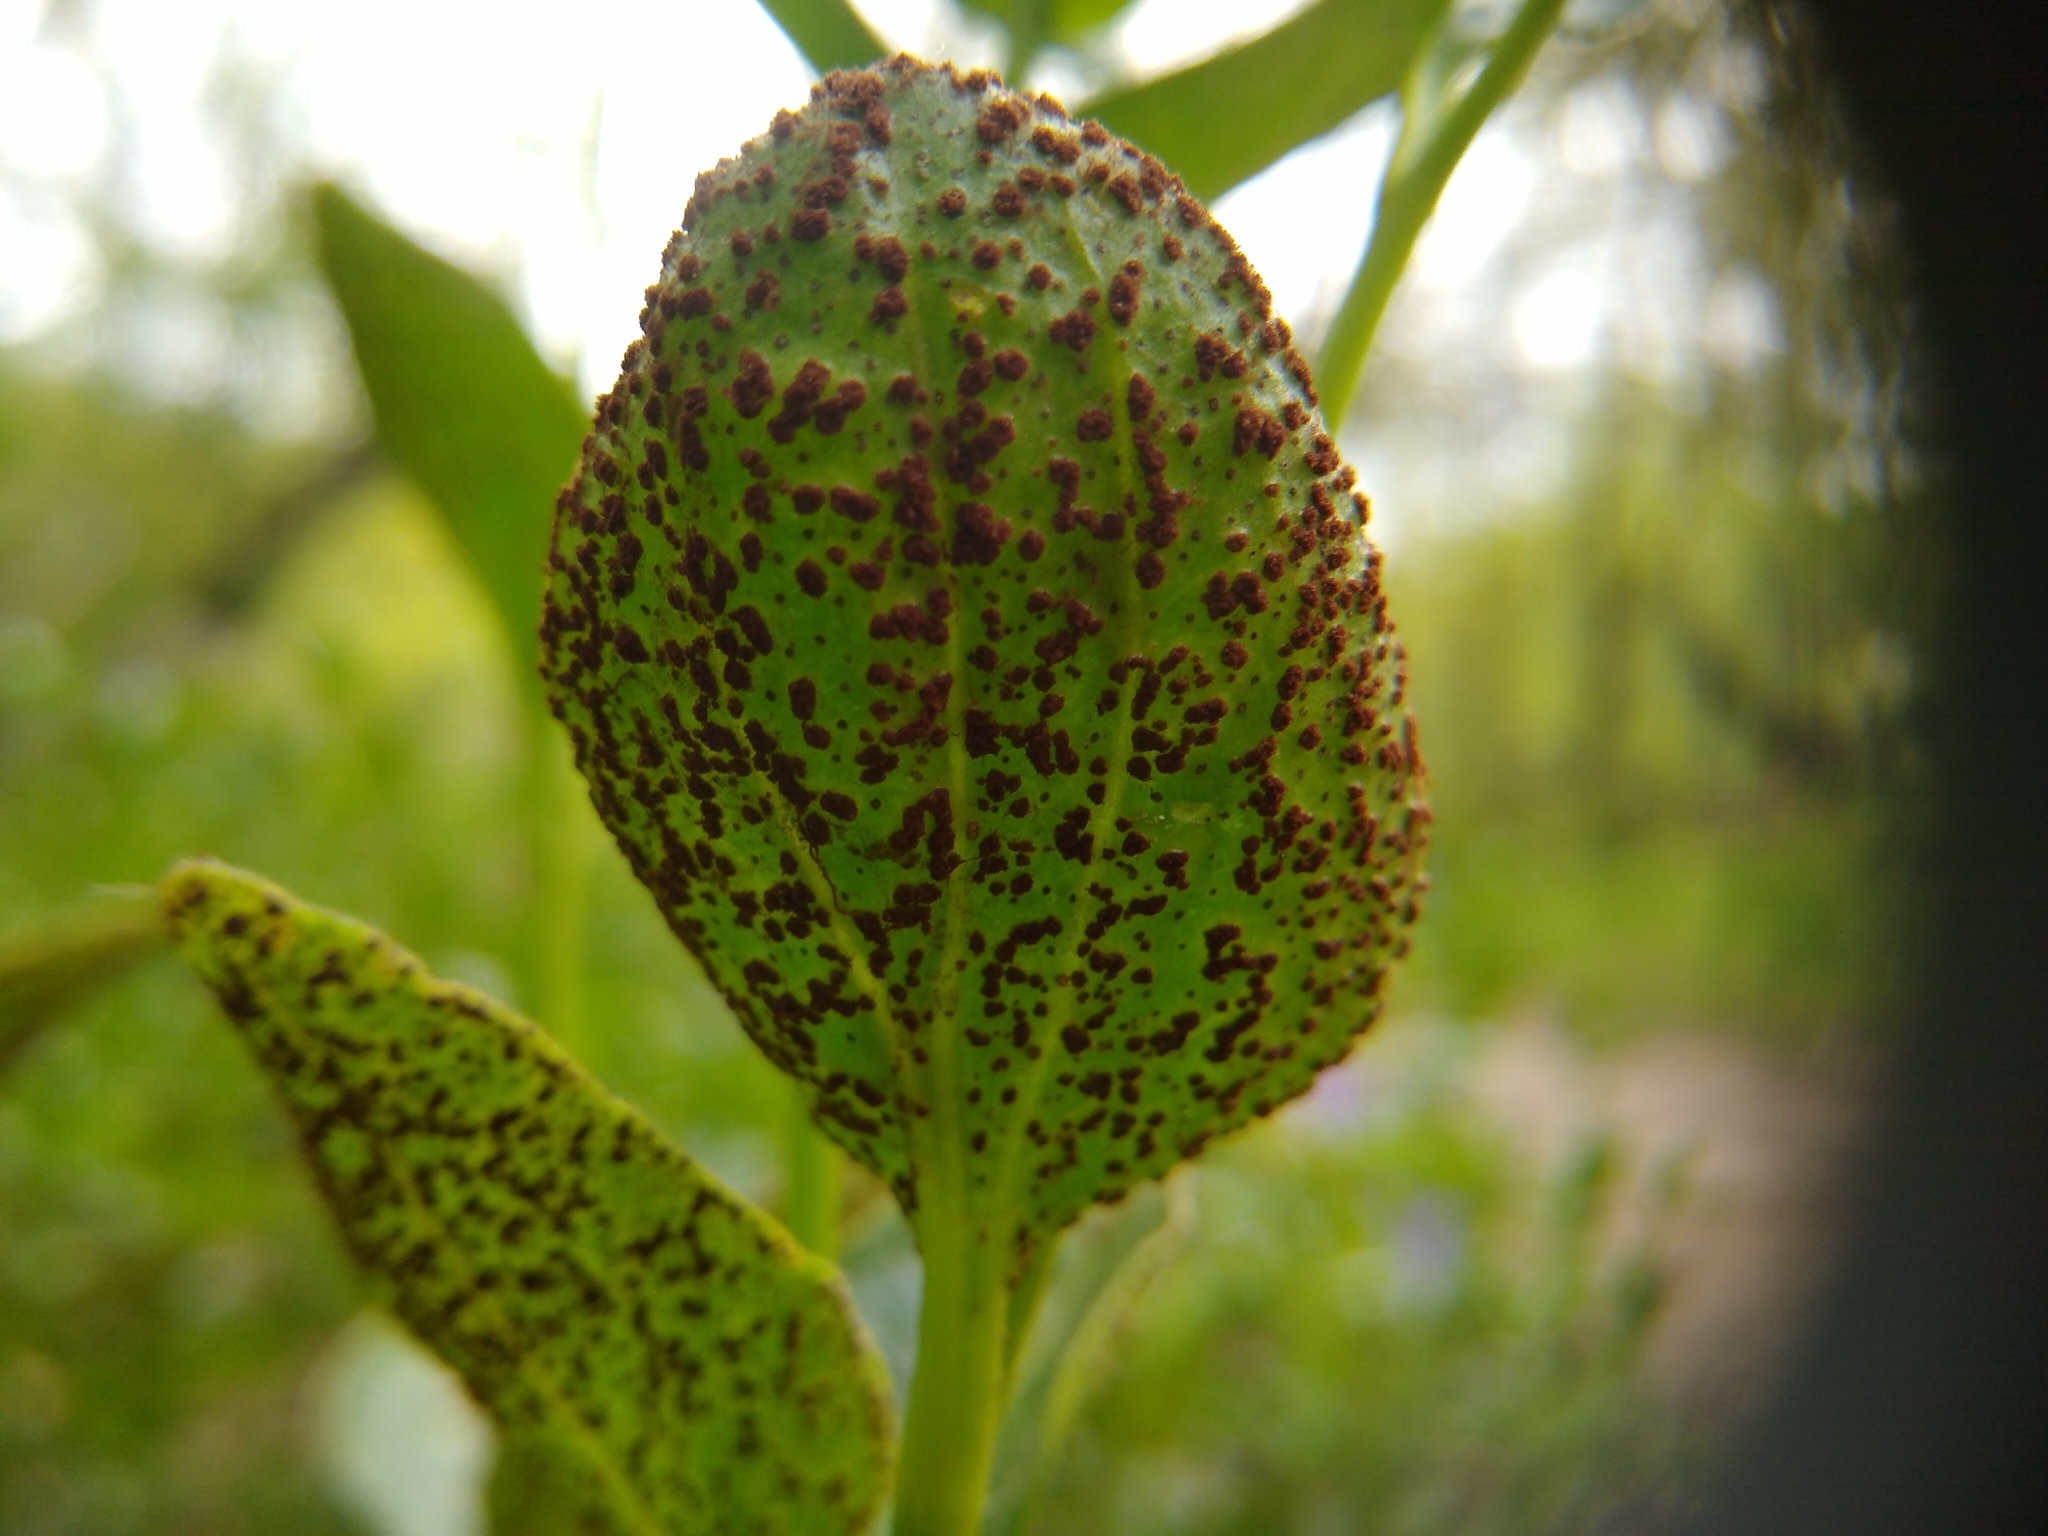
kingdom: Fungi
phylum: Basidiomycota
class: Pucciniomycetes
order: Pucciniales
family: Pucciniaceae
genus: Puccinia
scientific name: Puccinia vincae
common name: Periwinkle rust
